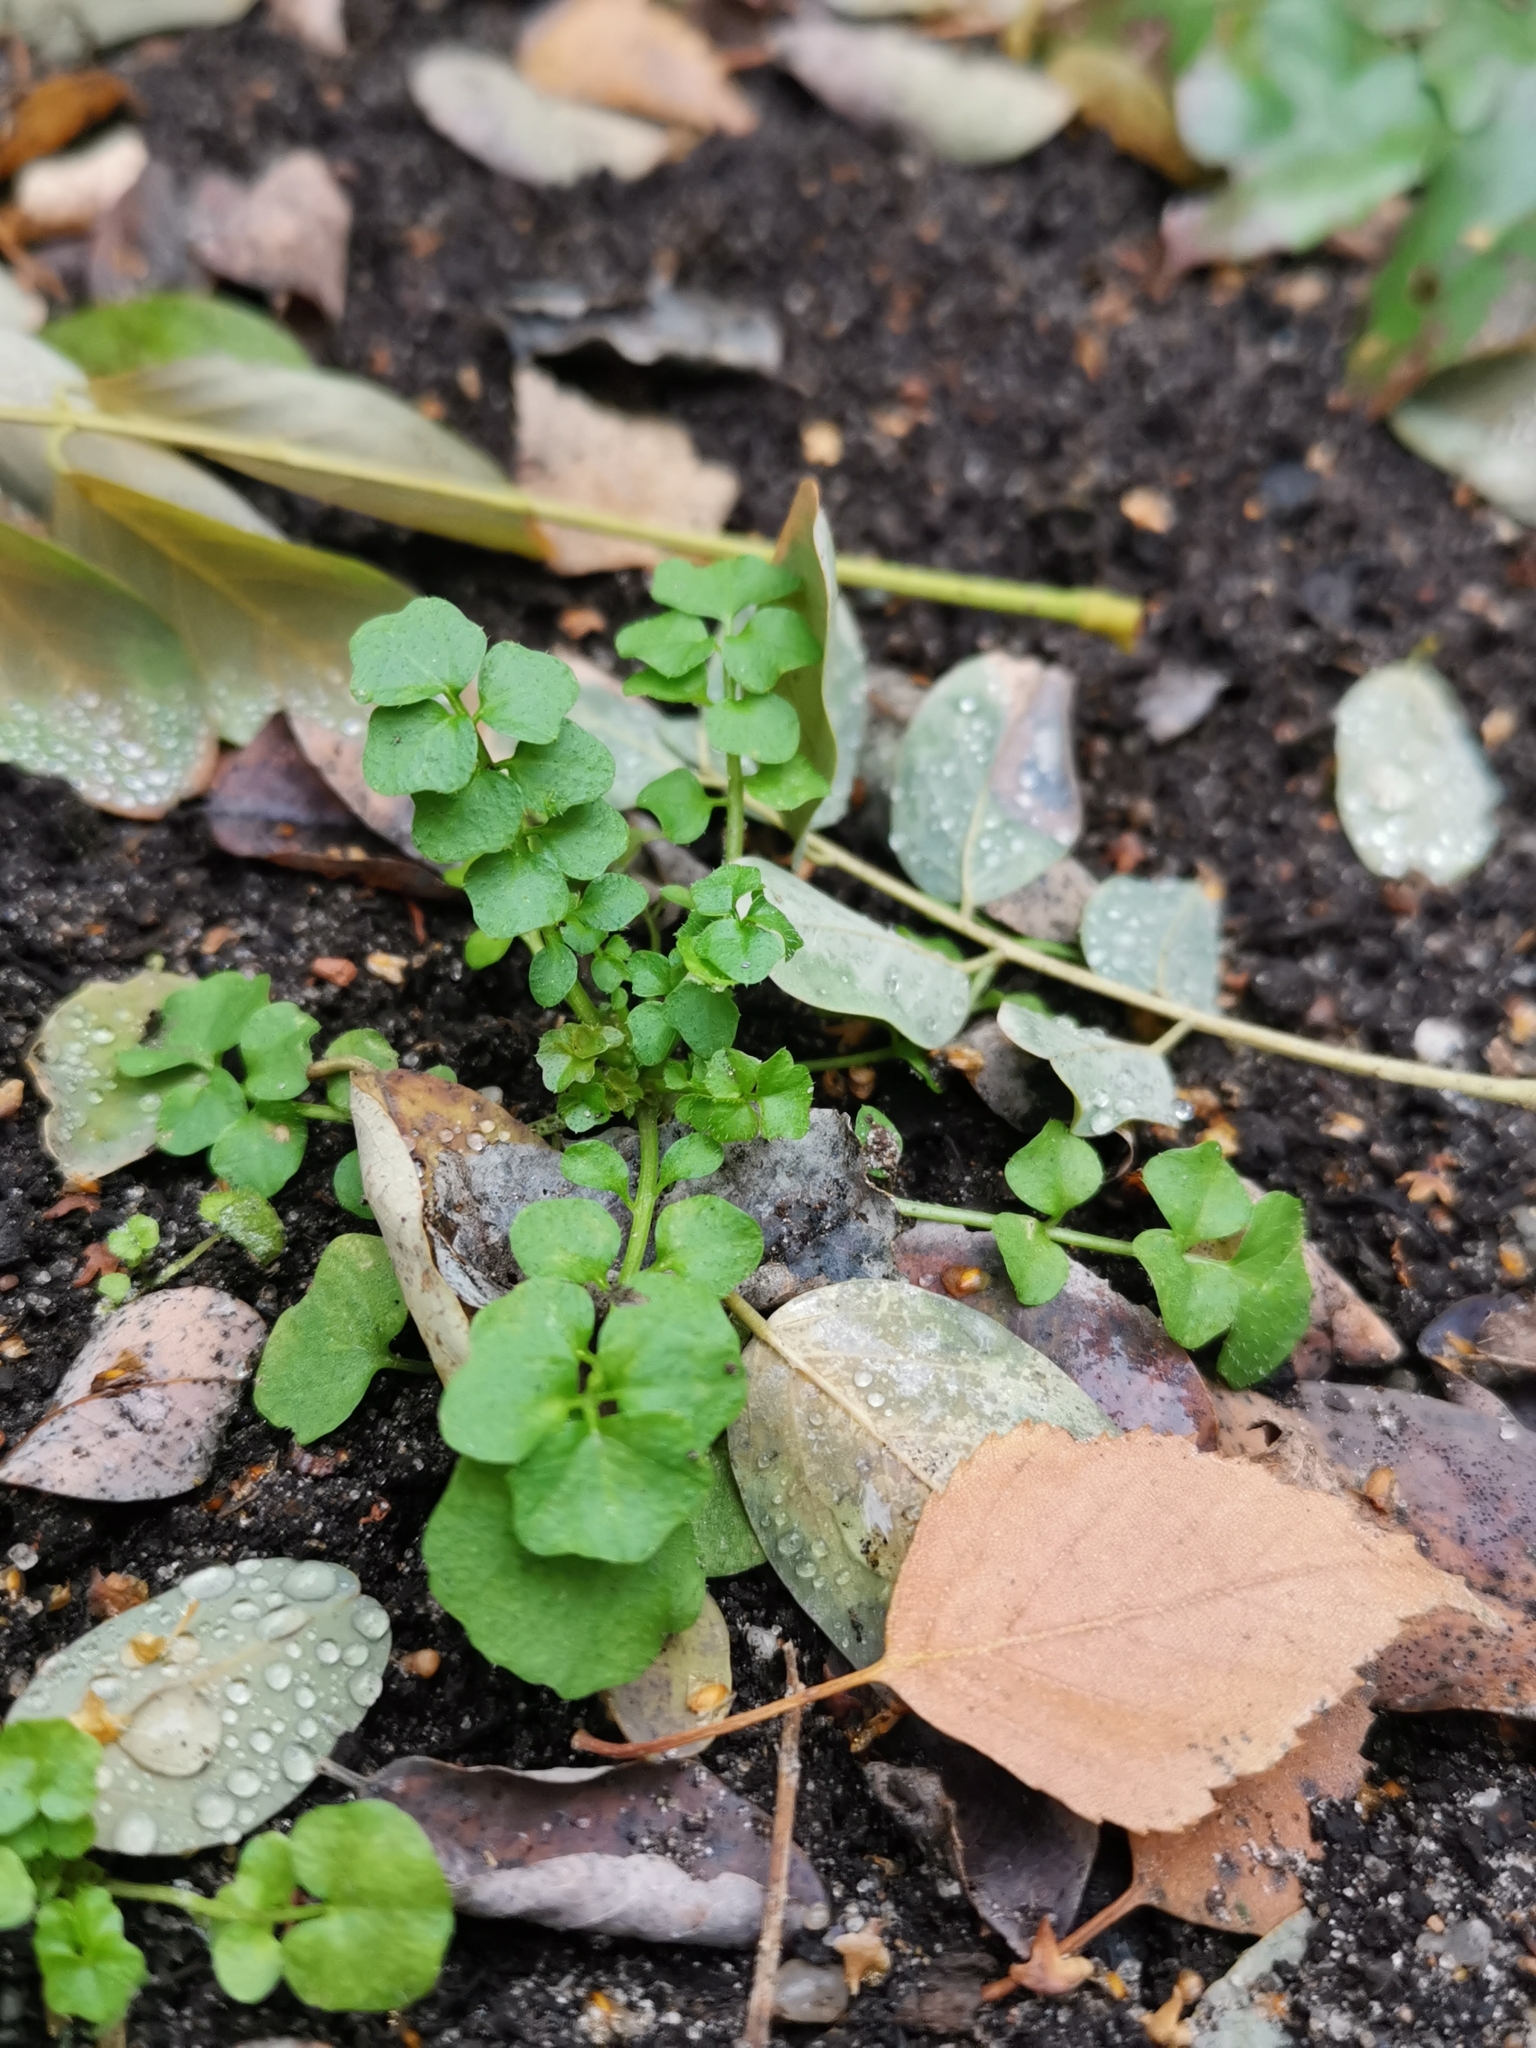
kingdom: Plantae
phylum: Tracheophyta
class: Magnoliopsida
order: Brassicales
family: Brassicaceae
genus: Cardamine
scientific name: Cardamine hirsuta
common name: Hairy bittercress
